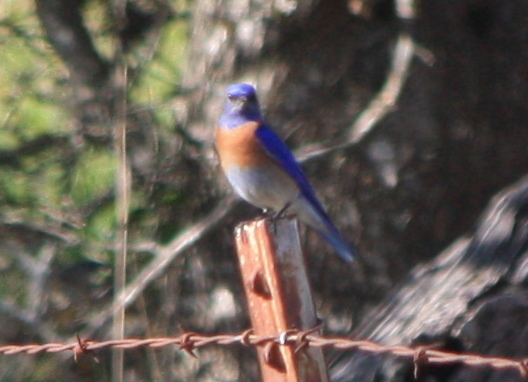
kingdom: Animalia
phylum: Chordata
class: Aves
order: Passeriformes
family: Turdidae
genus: Sialia
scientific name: Sialia mexicana
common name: Western bluebird
